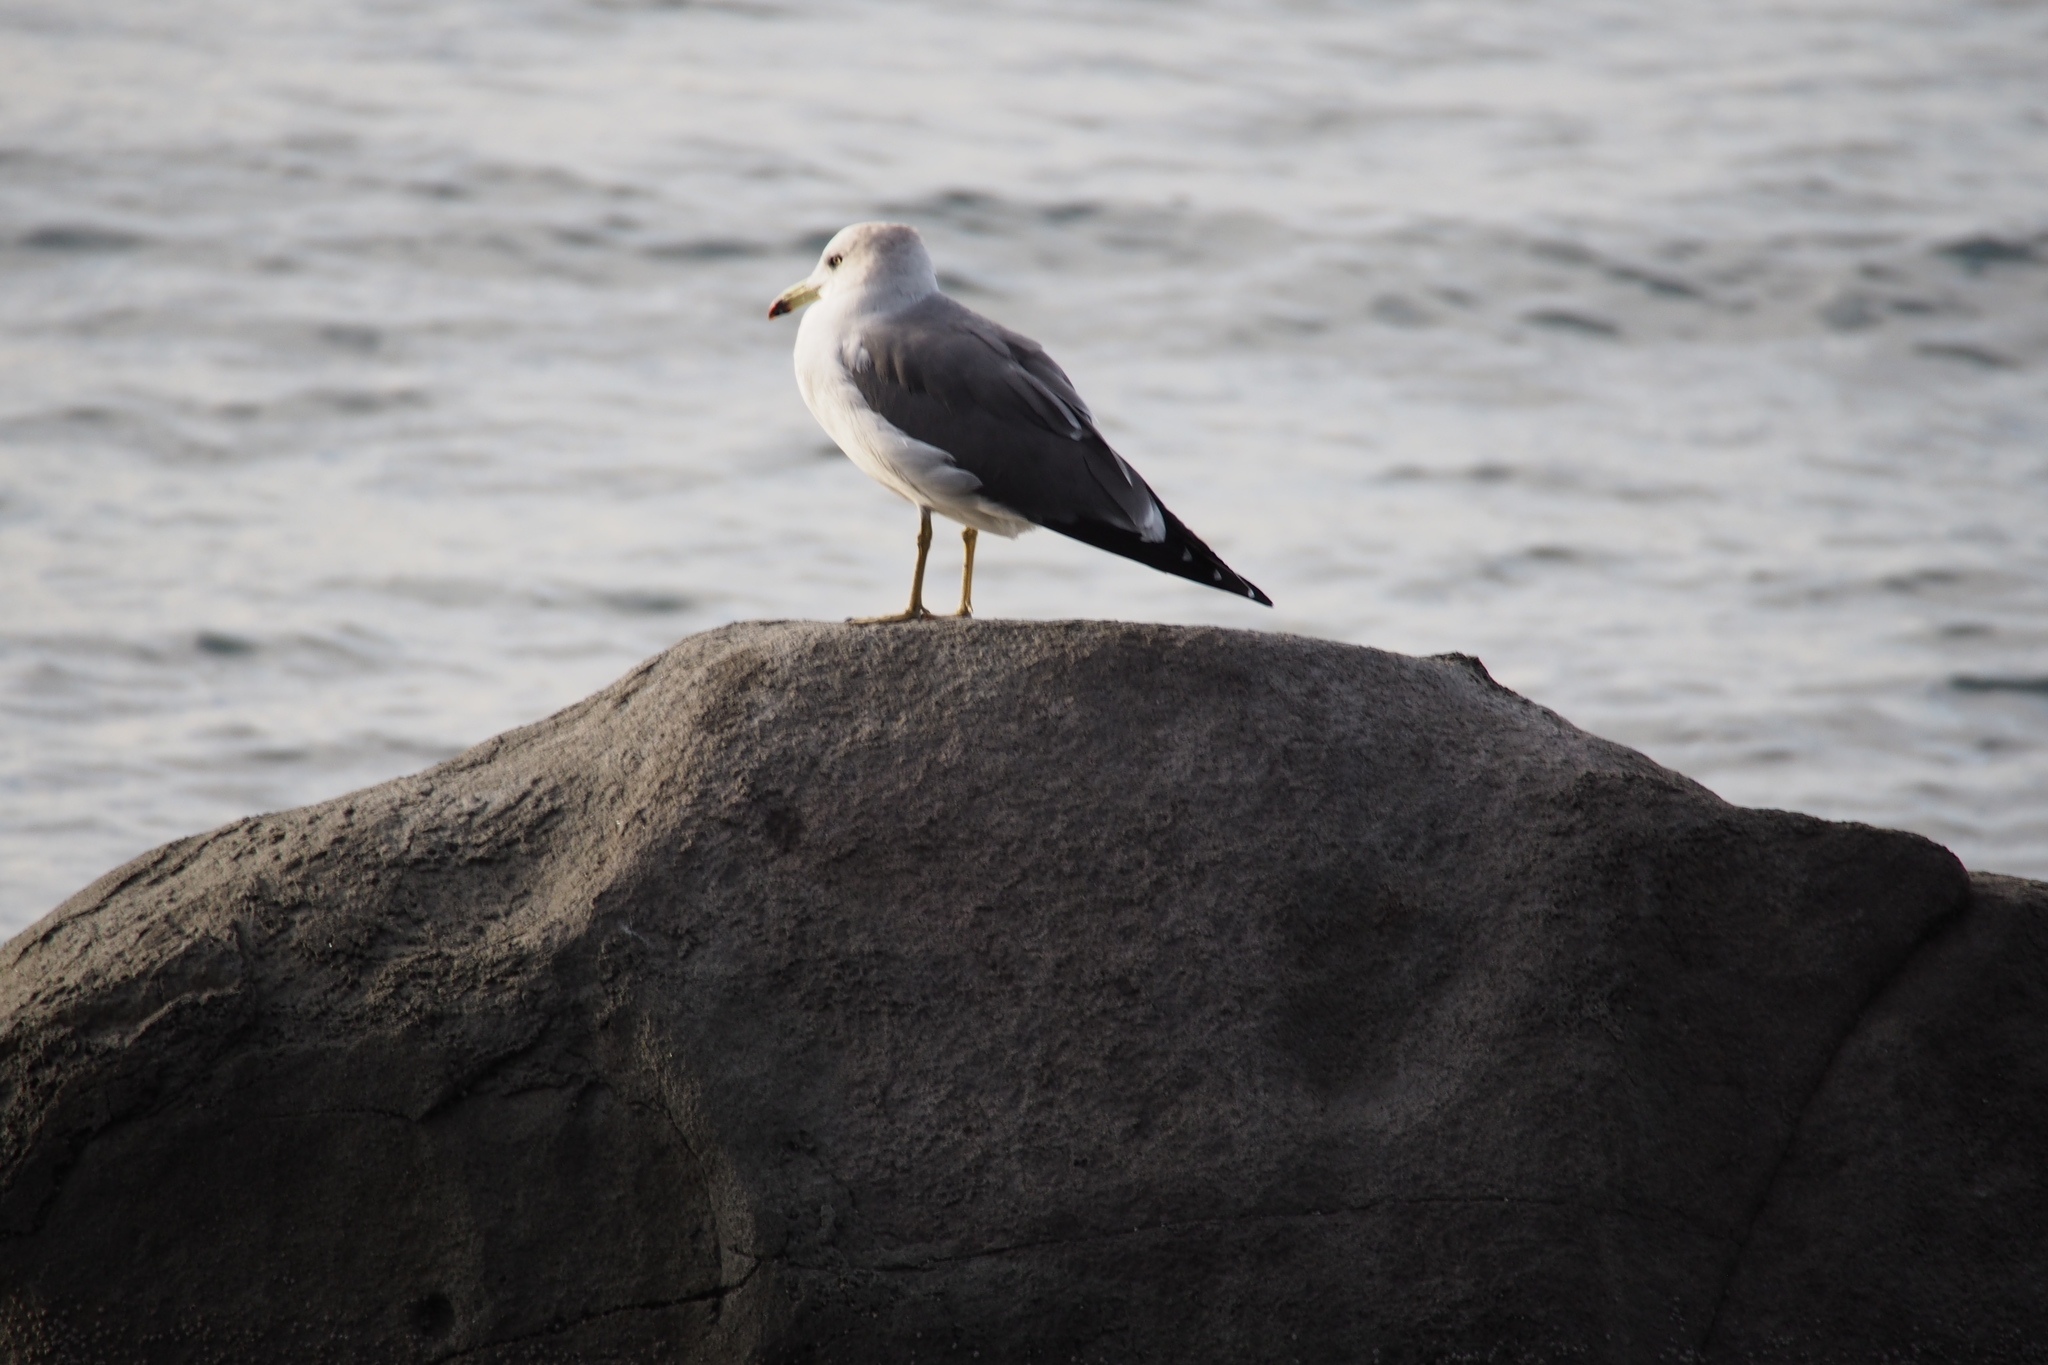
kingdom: Animalia
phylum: Chordata
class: Aves
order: Charadriiformes
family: Laridae
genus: Larus
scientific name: Larus crassirostris
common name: Black-tailed gull
